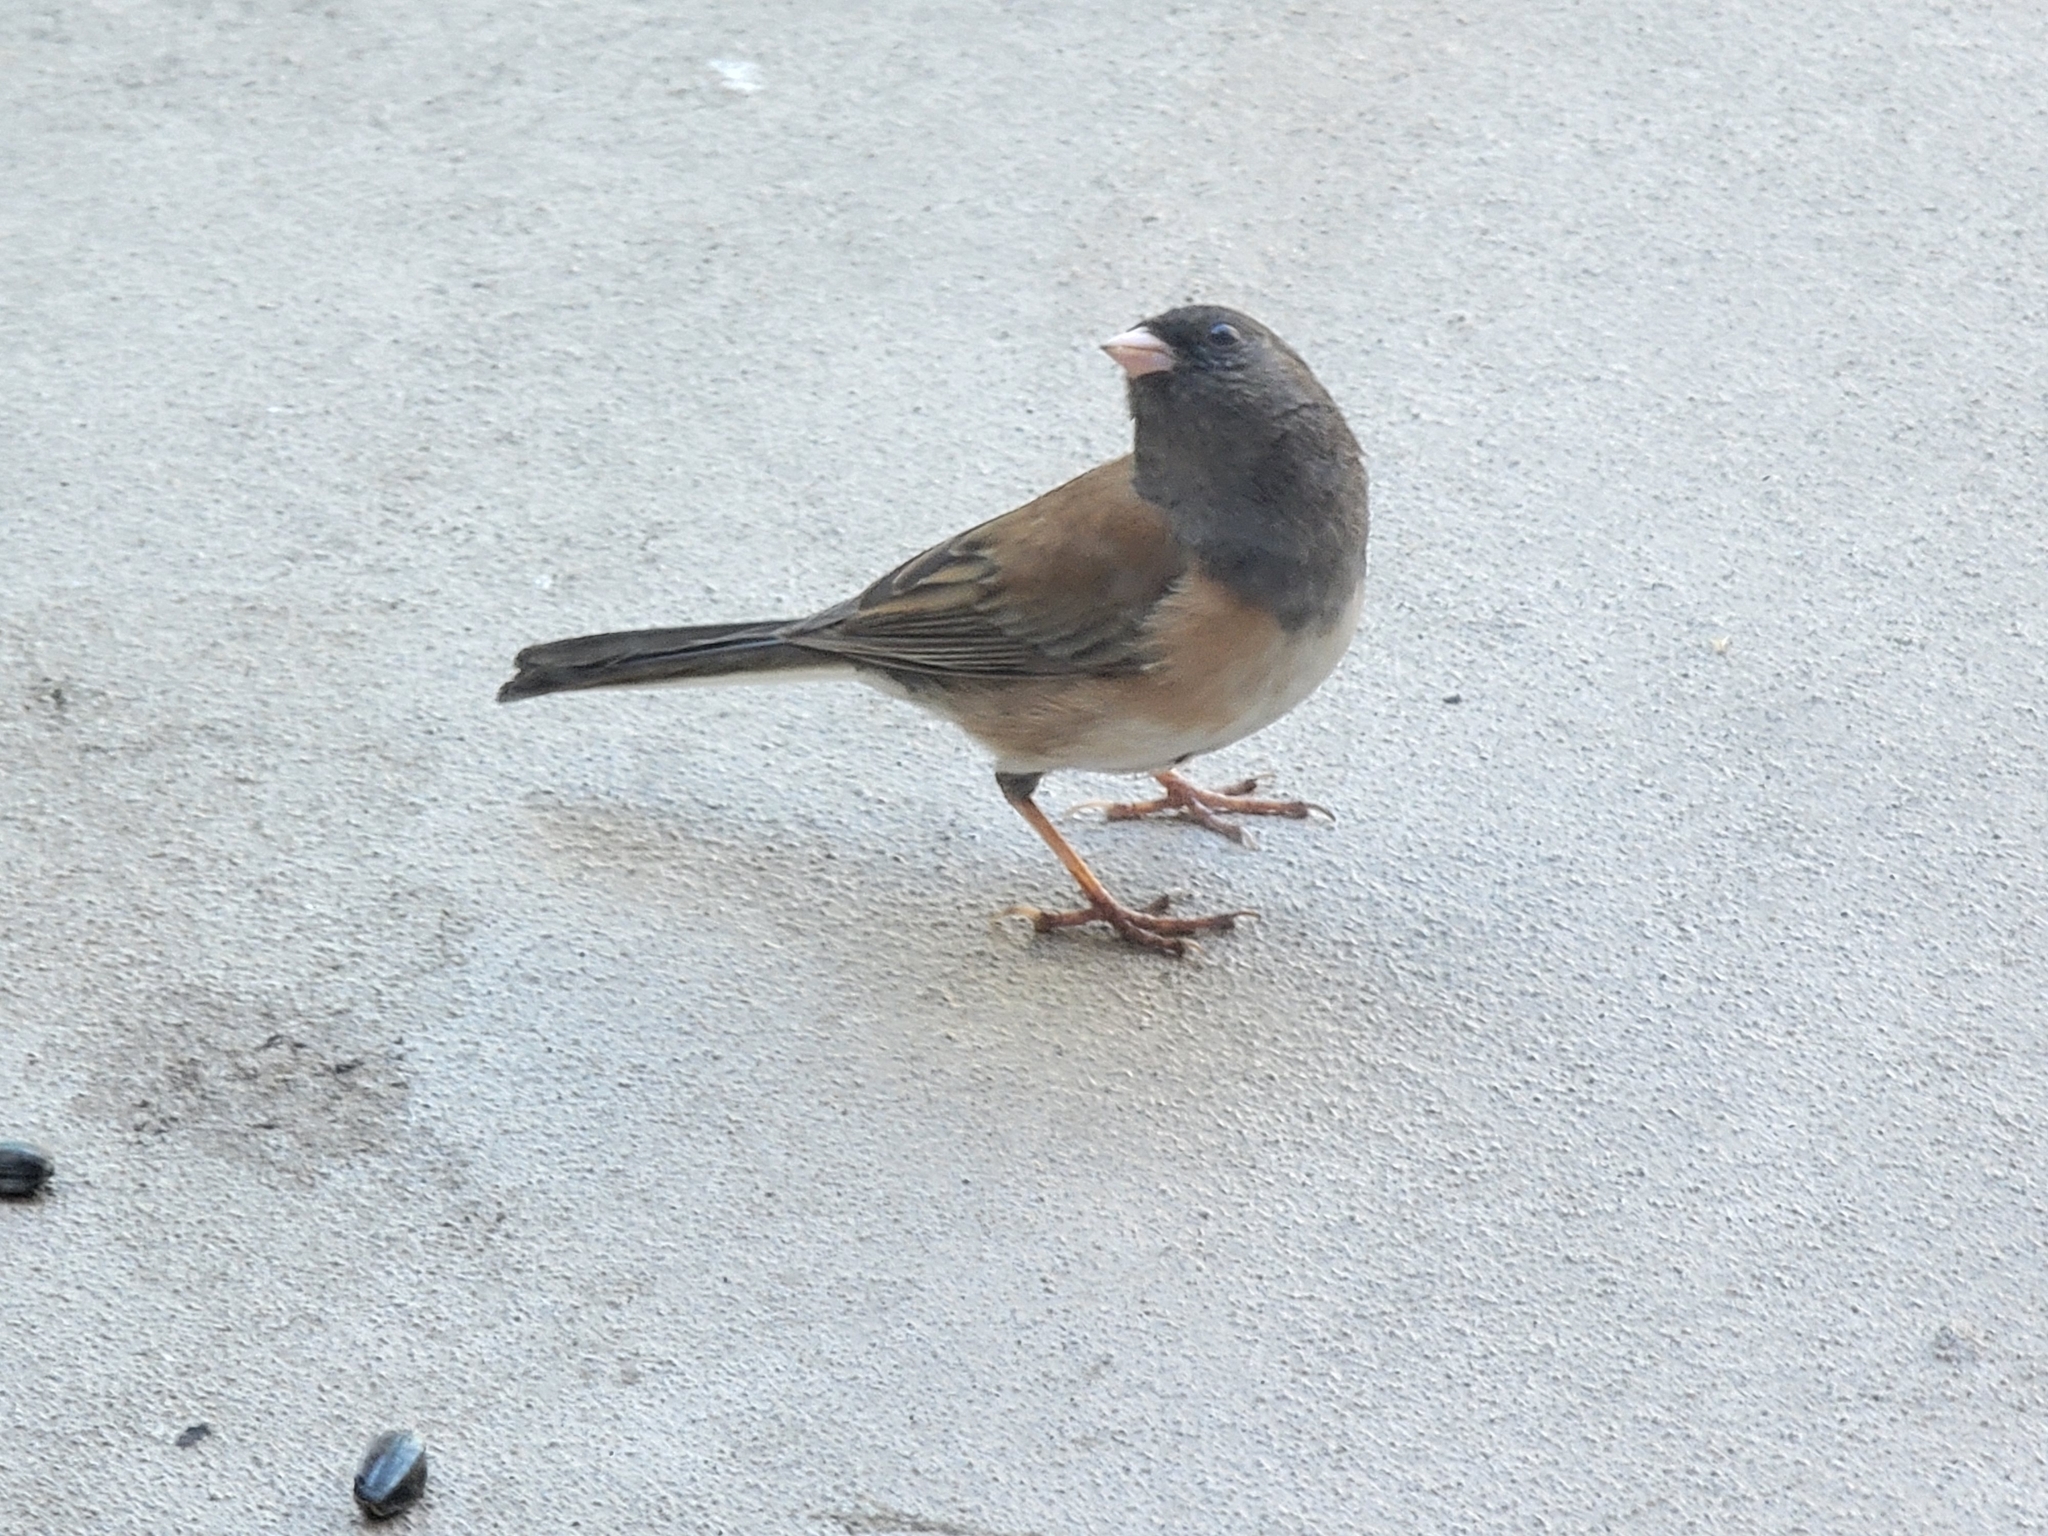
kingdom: Animalia
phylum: Chordata
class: Aves
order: Passeriformes
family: Passerellidae
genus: Junco
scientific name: Junco hyemalis
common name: Dark-eyed junco
